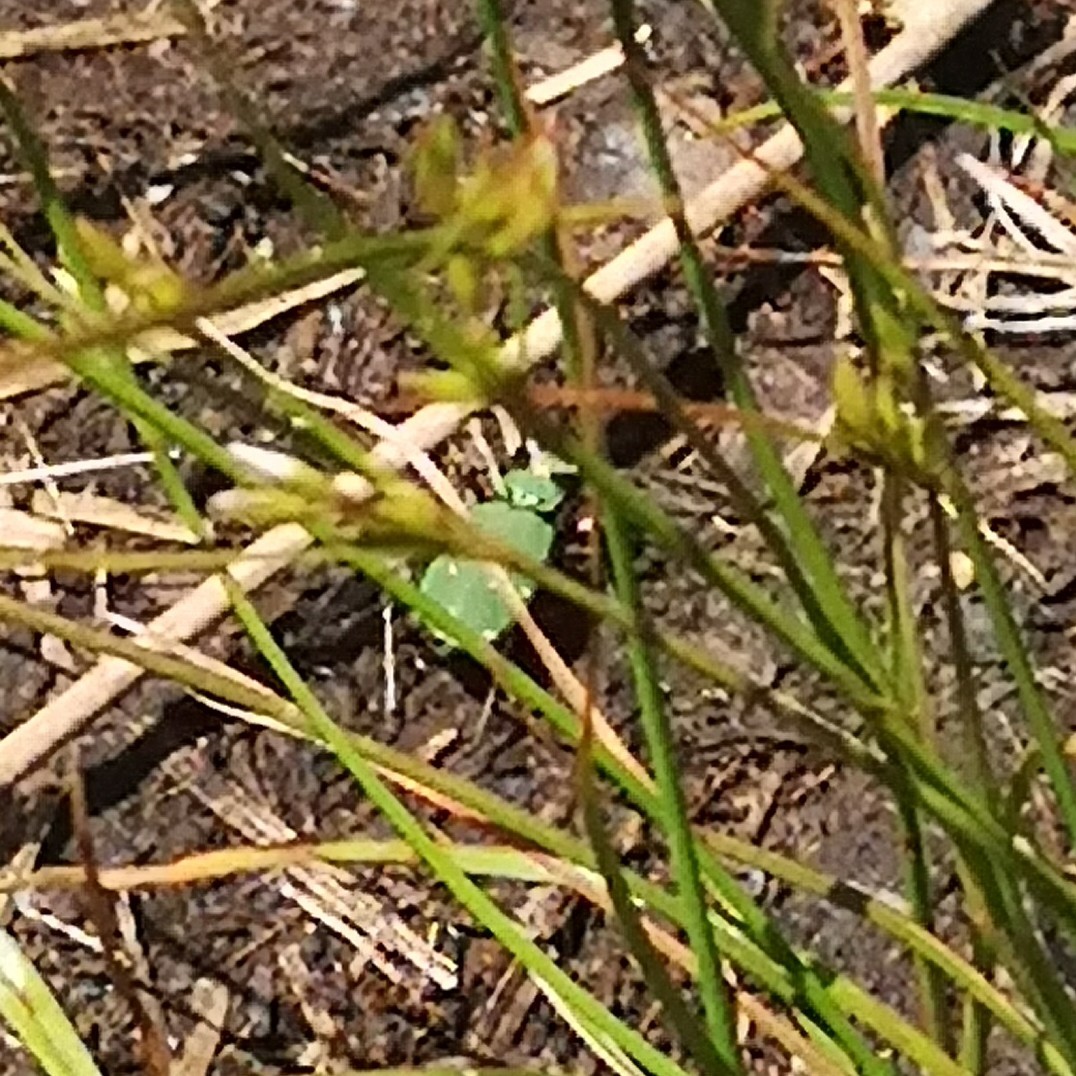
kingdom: Animalia
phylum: Arthropoda
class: Insecta
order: Coleoptera
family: Carabidae
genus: Cicindela
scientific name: Cicindela campestris
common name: Common tiger beetle
